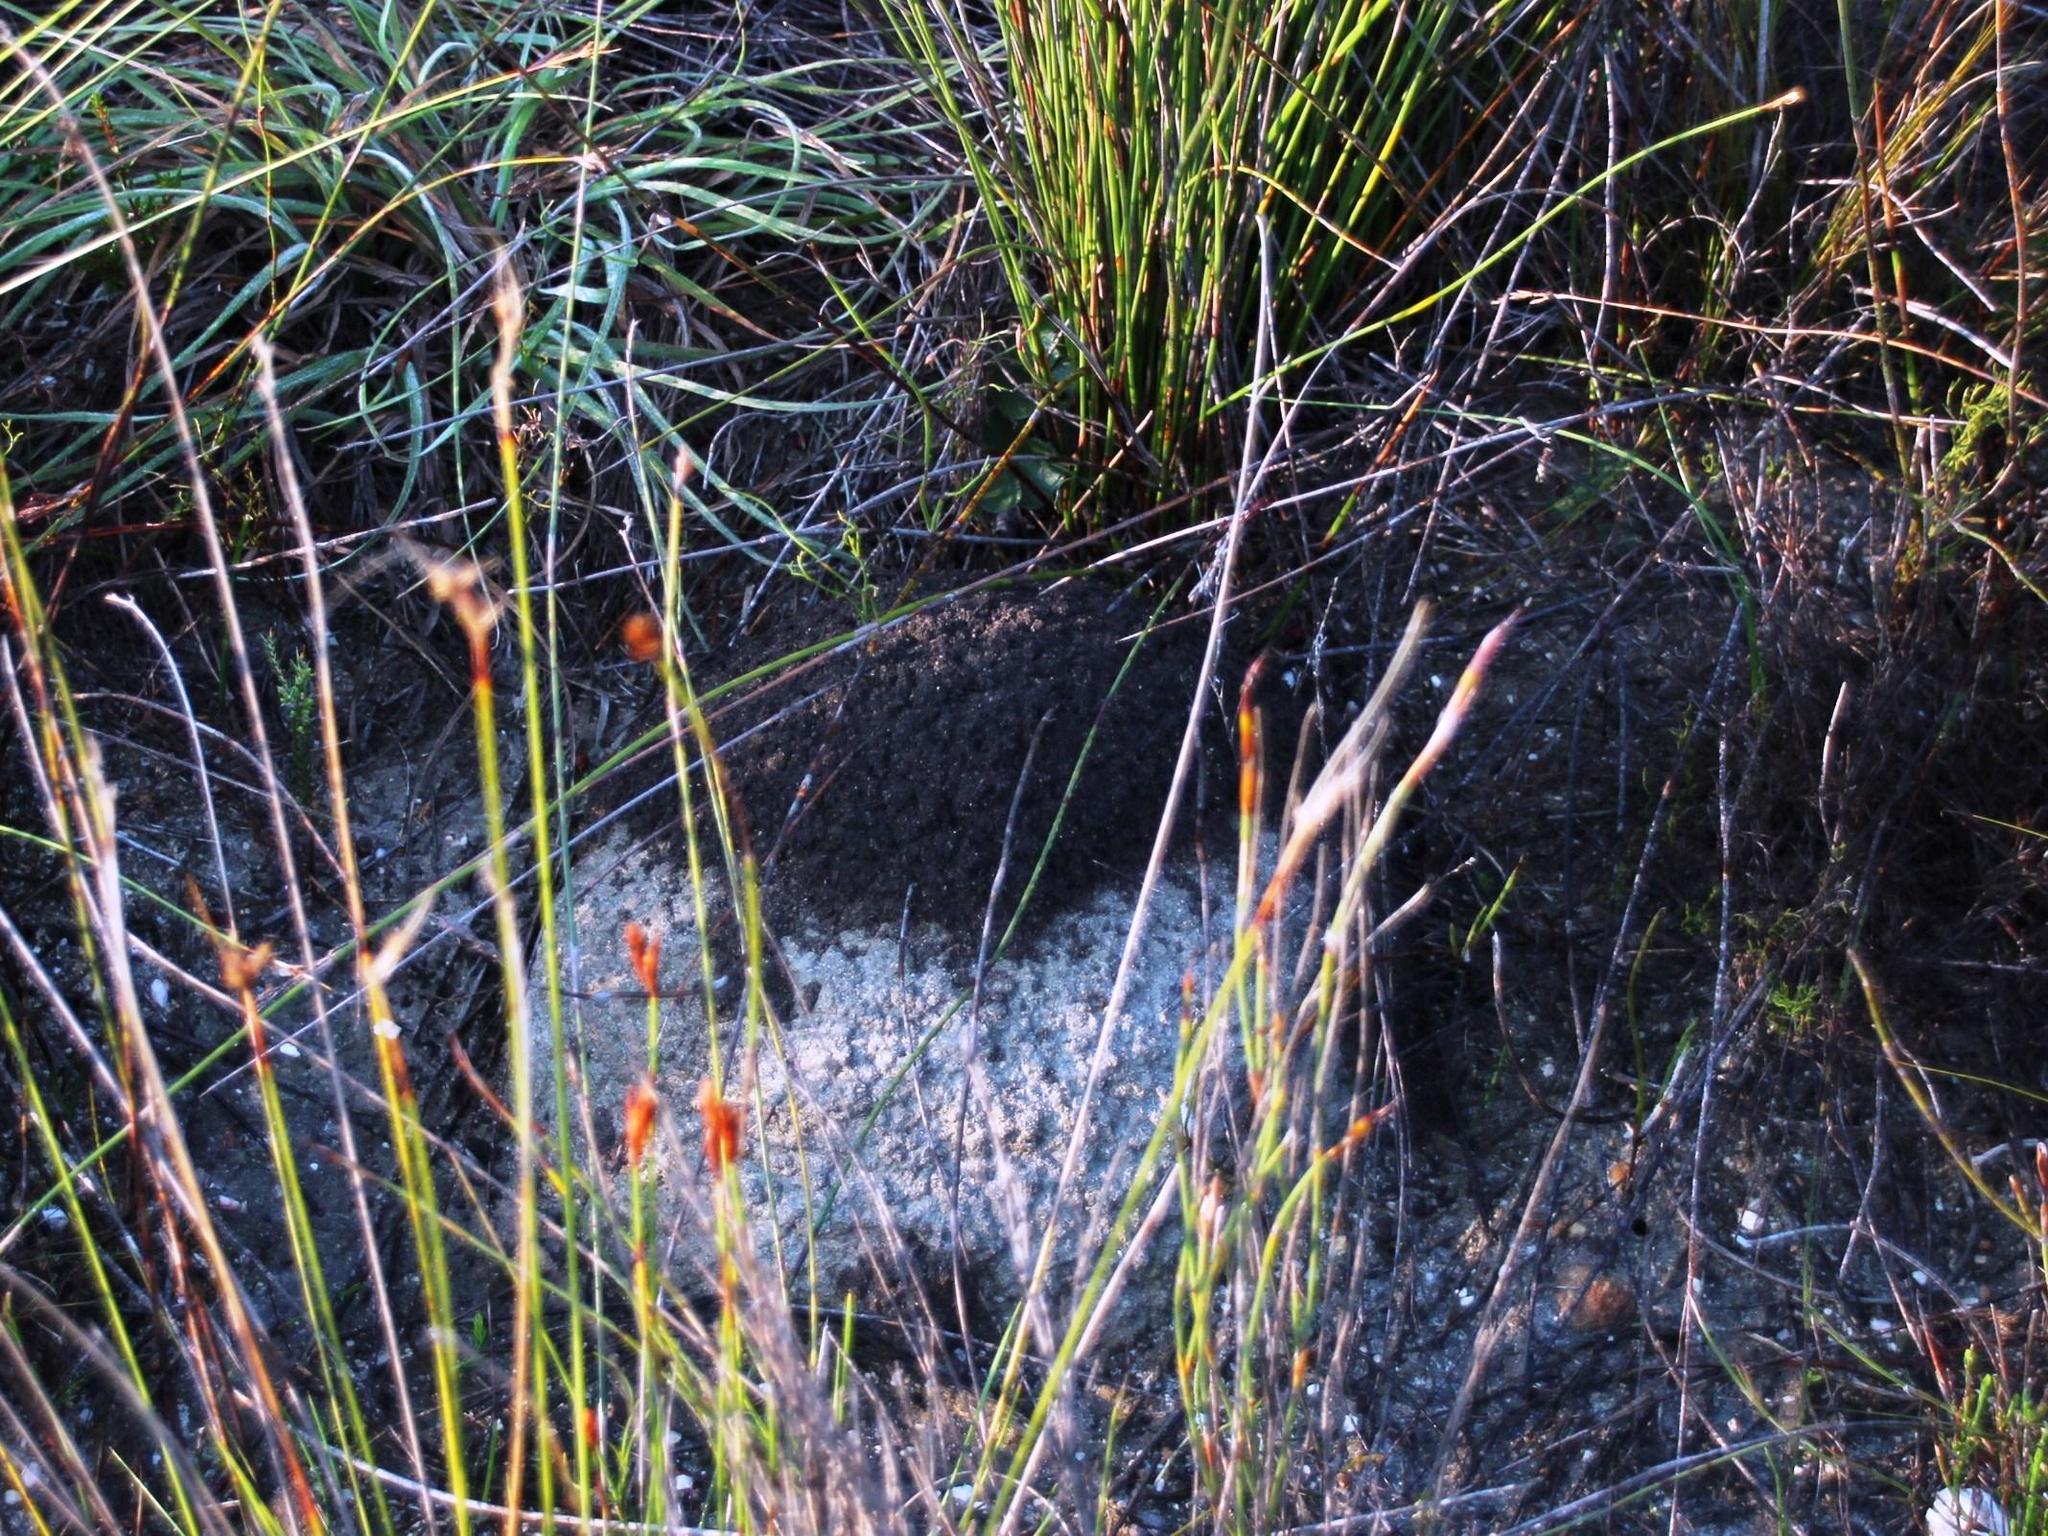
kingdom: Animalia
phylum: Arthropoda
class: Insecta
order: Blattodea
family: Termitidae
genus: Amitermes
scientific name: Amitermes hastatus
